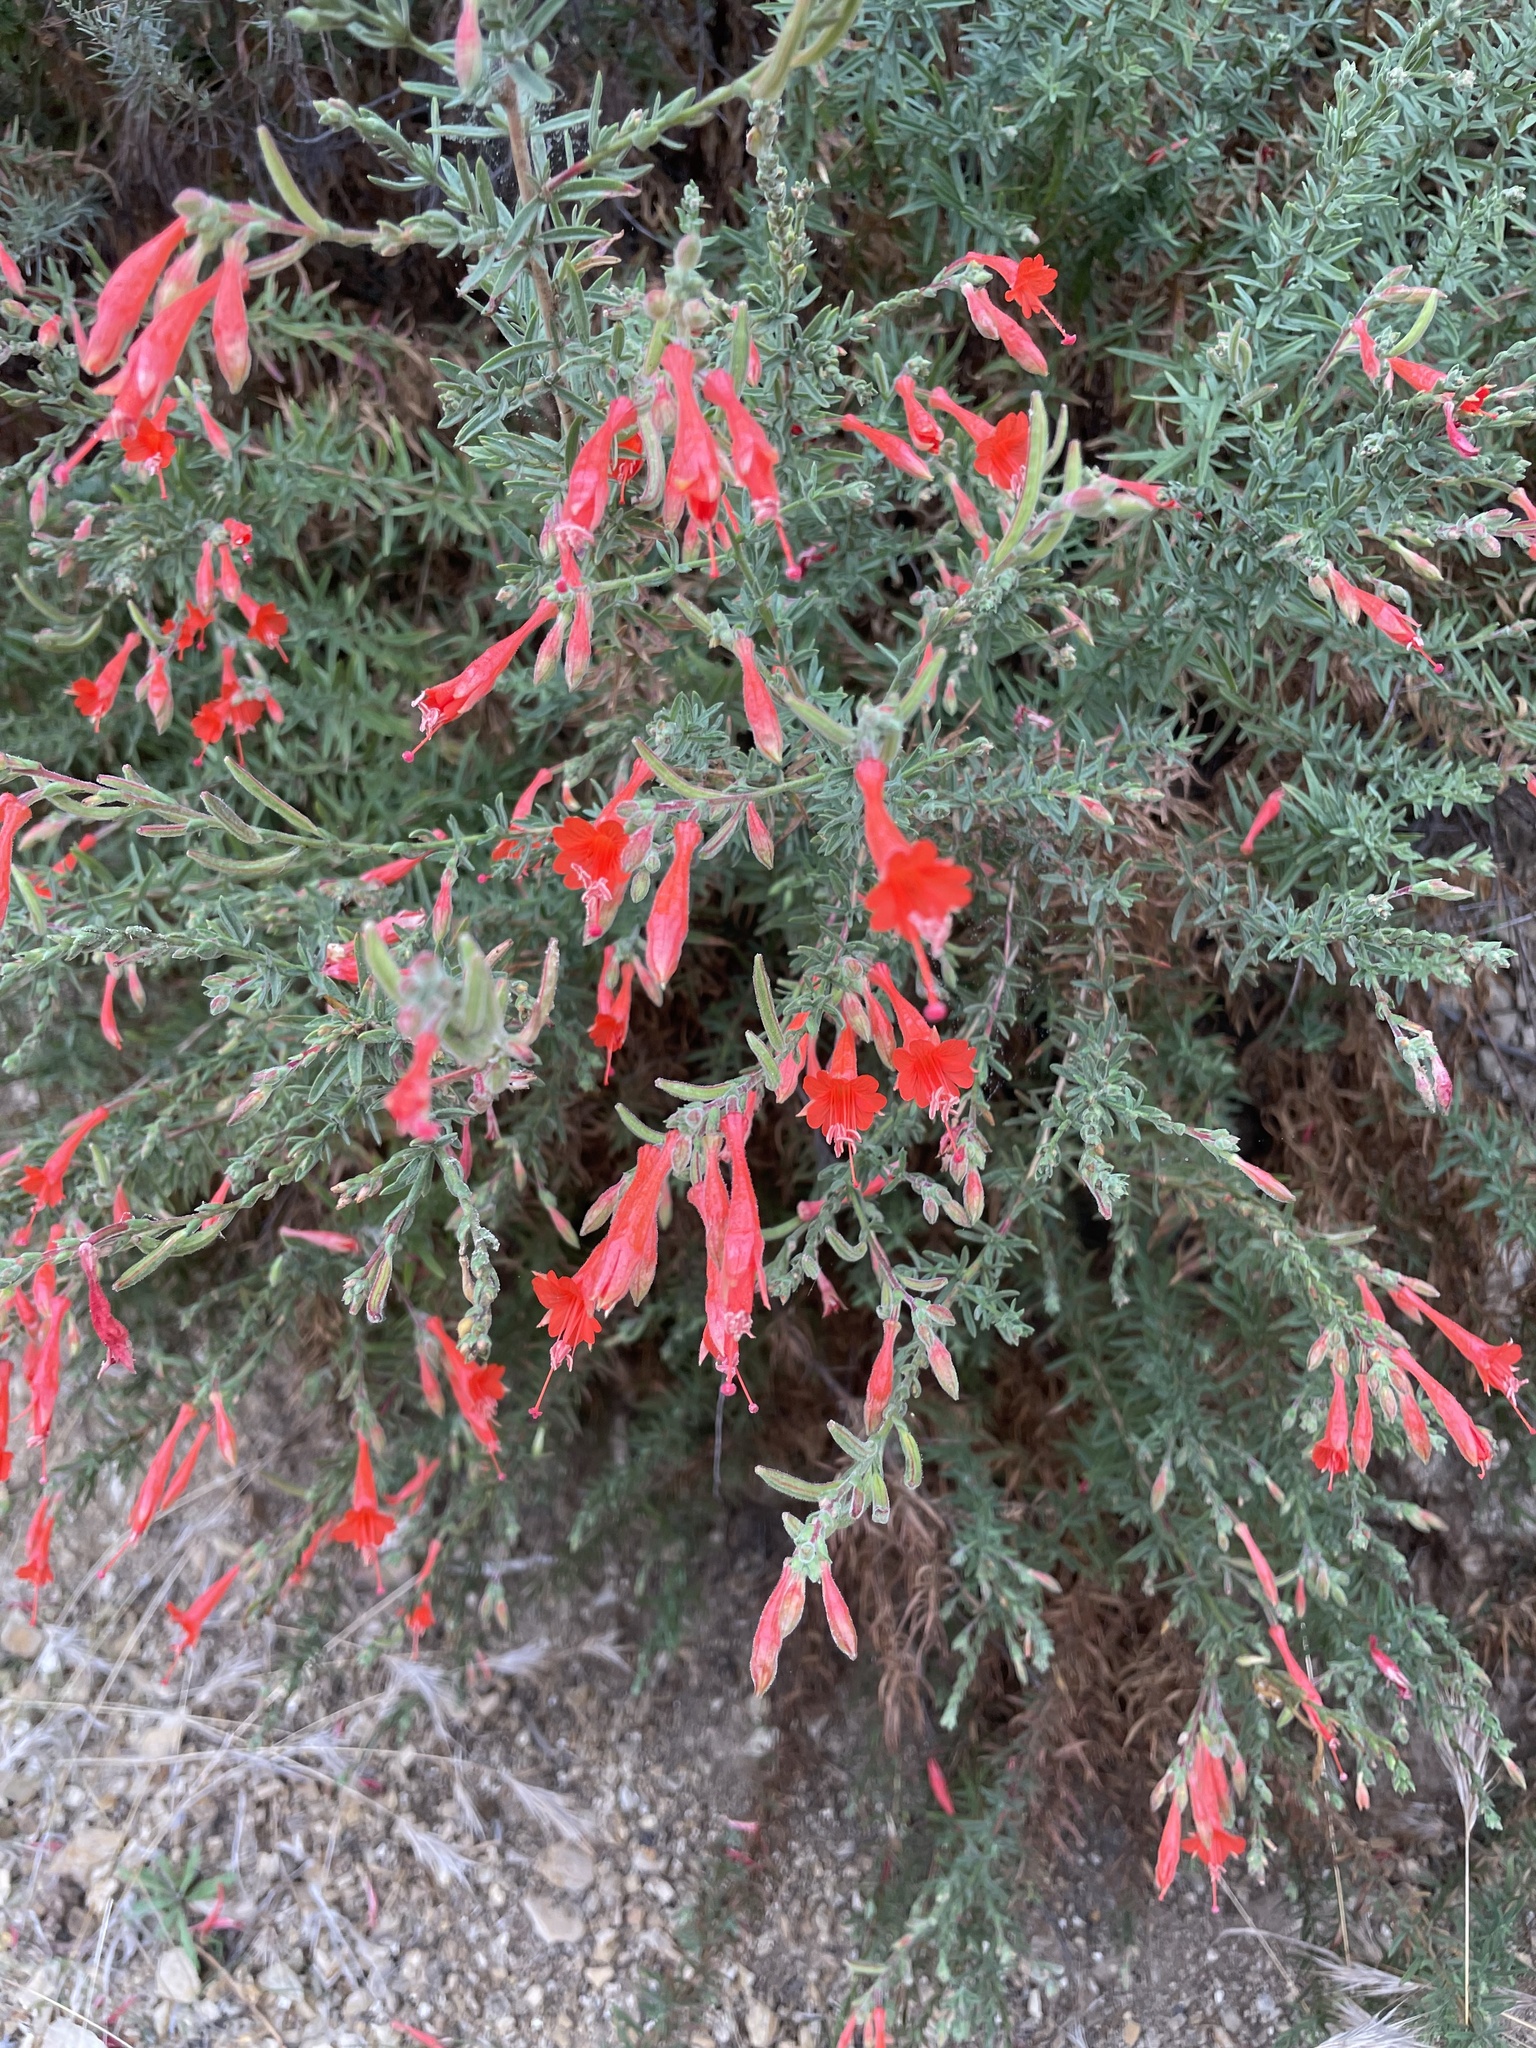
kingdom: Plantae
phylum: Tracheophyta
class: Magnoliopsida
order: Myrtales
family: Onagraceae
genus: Epilobium
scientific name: Epilobium canum
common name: California-fuchsia
